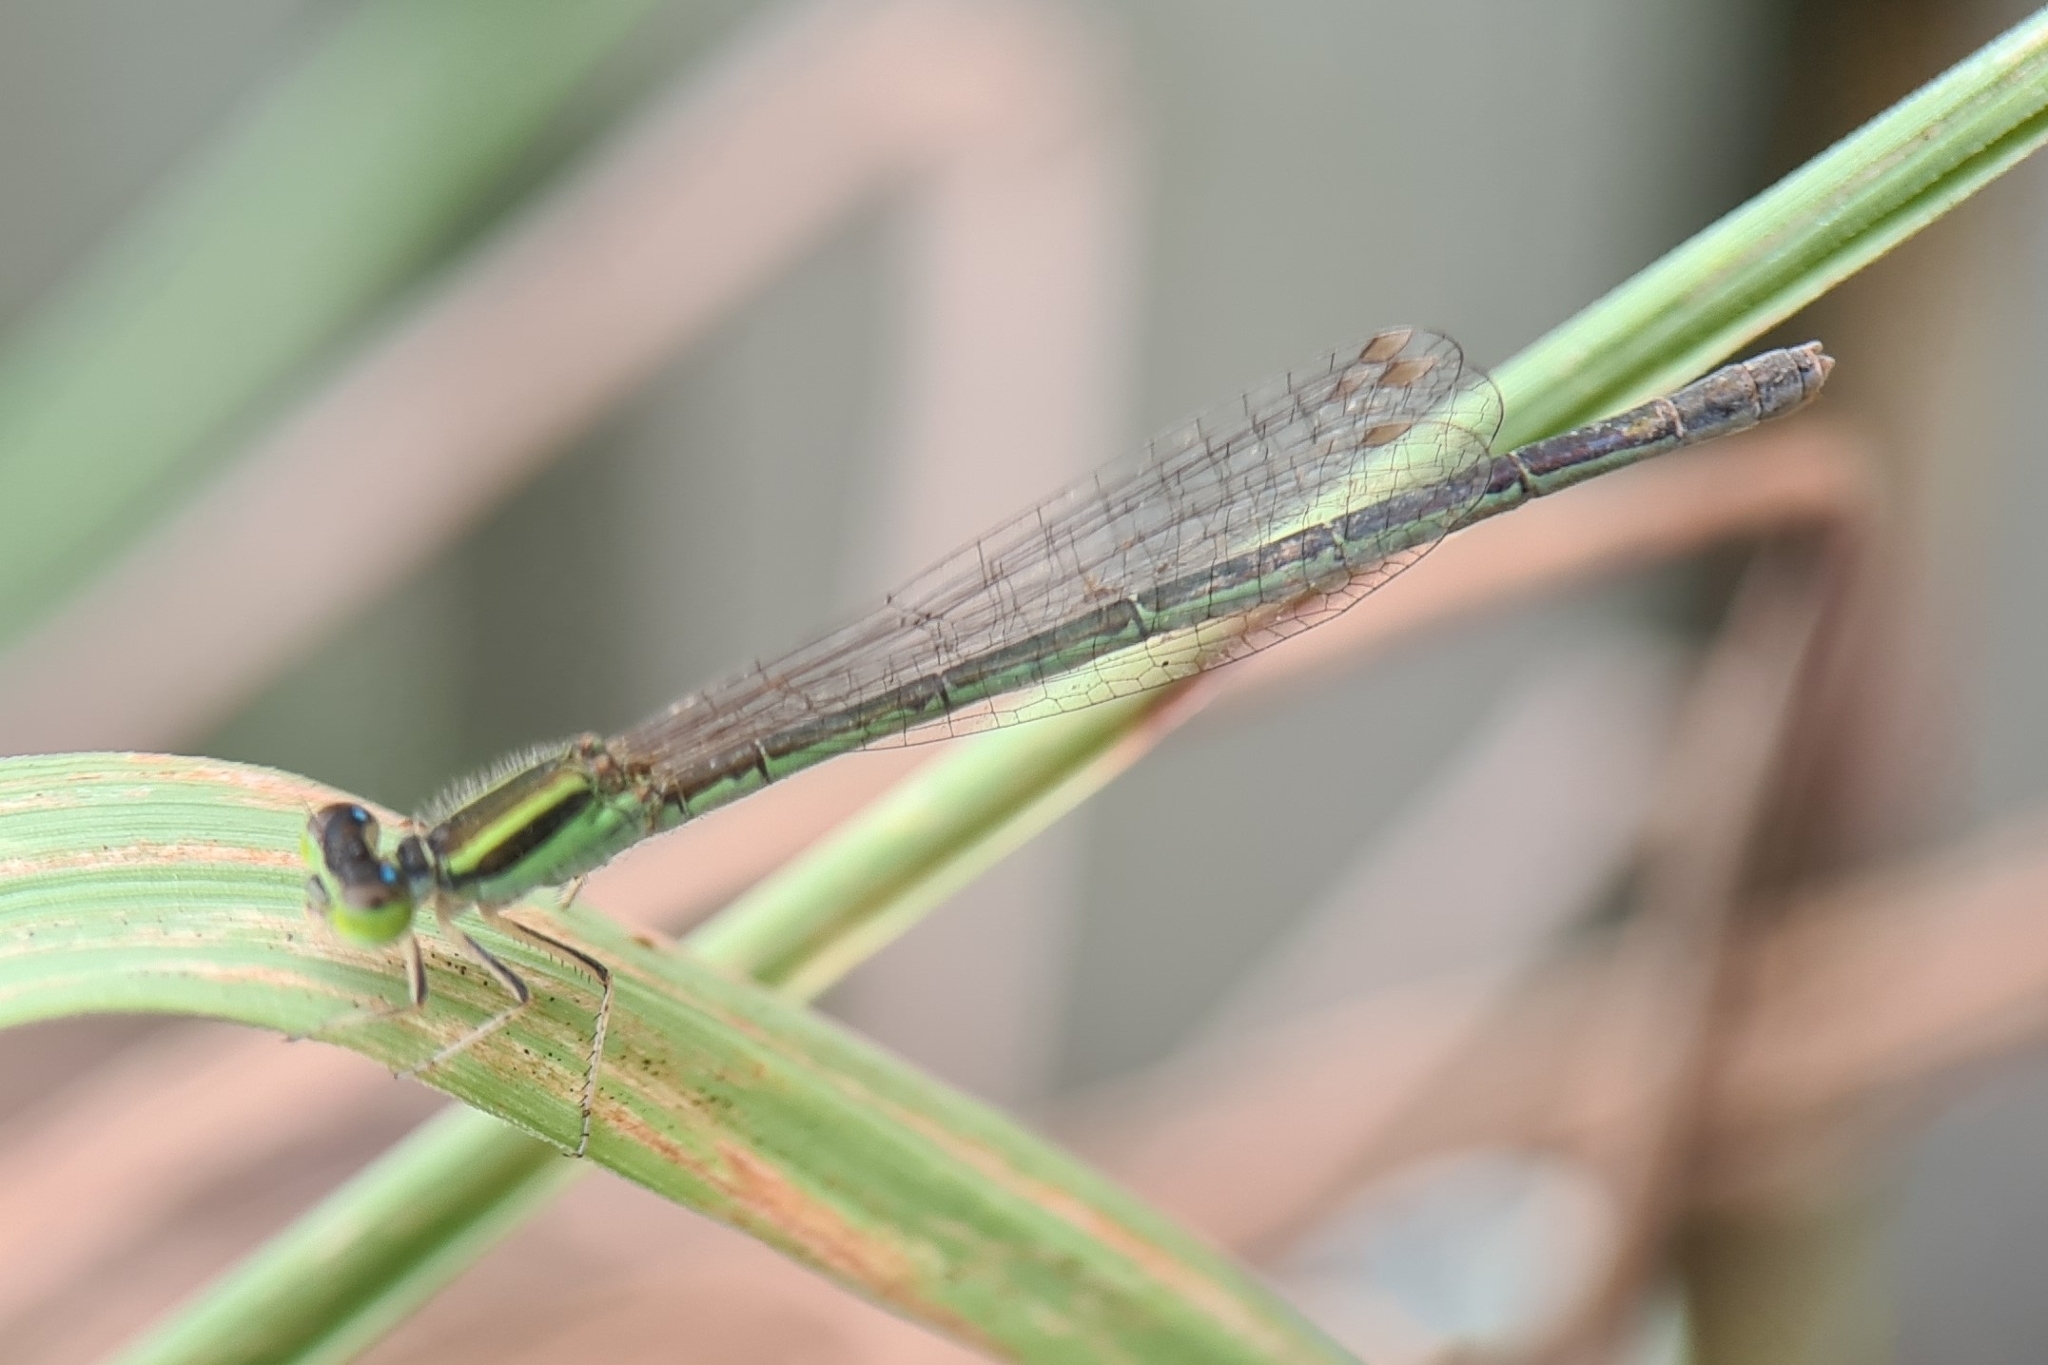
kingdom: Animalia
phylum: Arthropoda
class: Insecta
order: Odonata
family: Coenagrionidae
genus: Ischnura
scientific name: Ischnura aurora
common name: Gossamer damselfly
